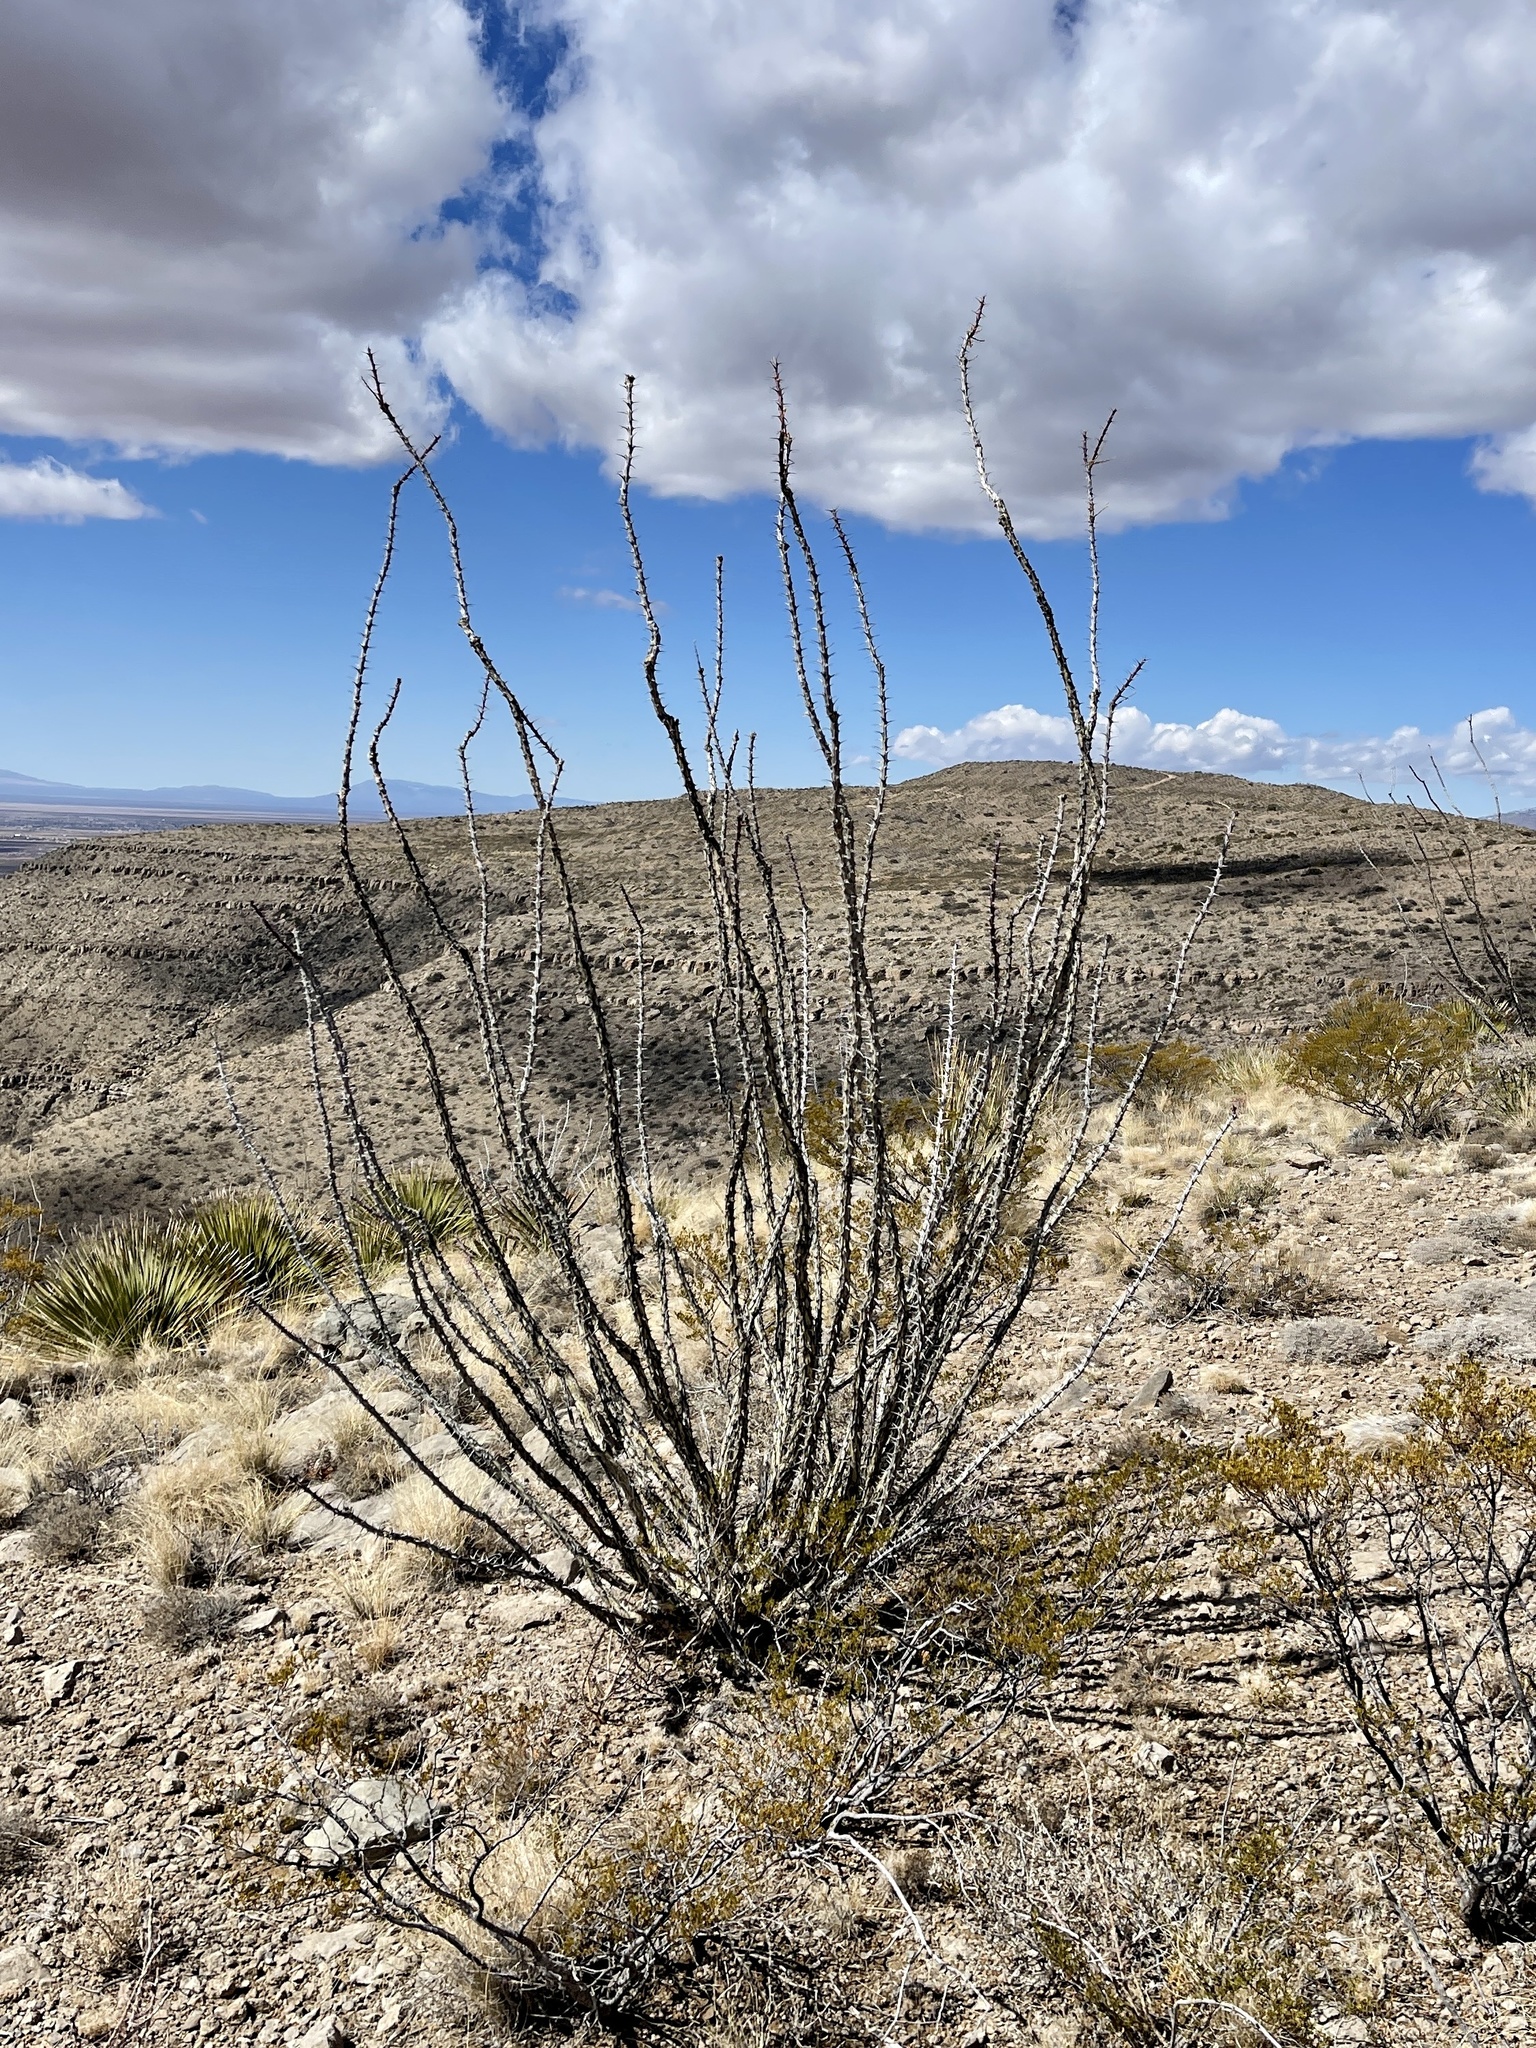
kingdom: Plantae
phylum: Tracheophyta
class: Magnoliopsida
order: Ericales
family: Fouquieriaceae
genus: Fouquieria
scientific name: Fouquieria splendens
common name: Vine-cactus
